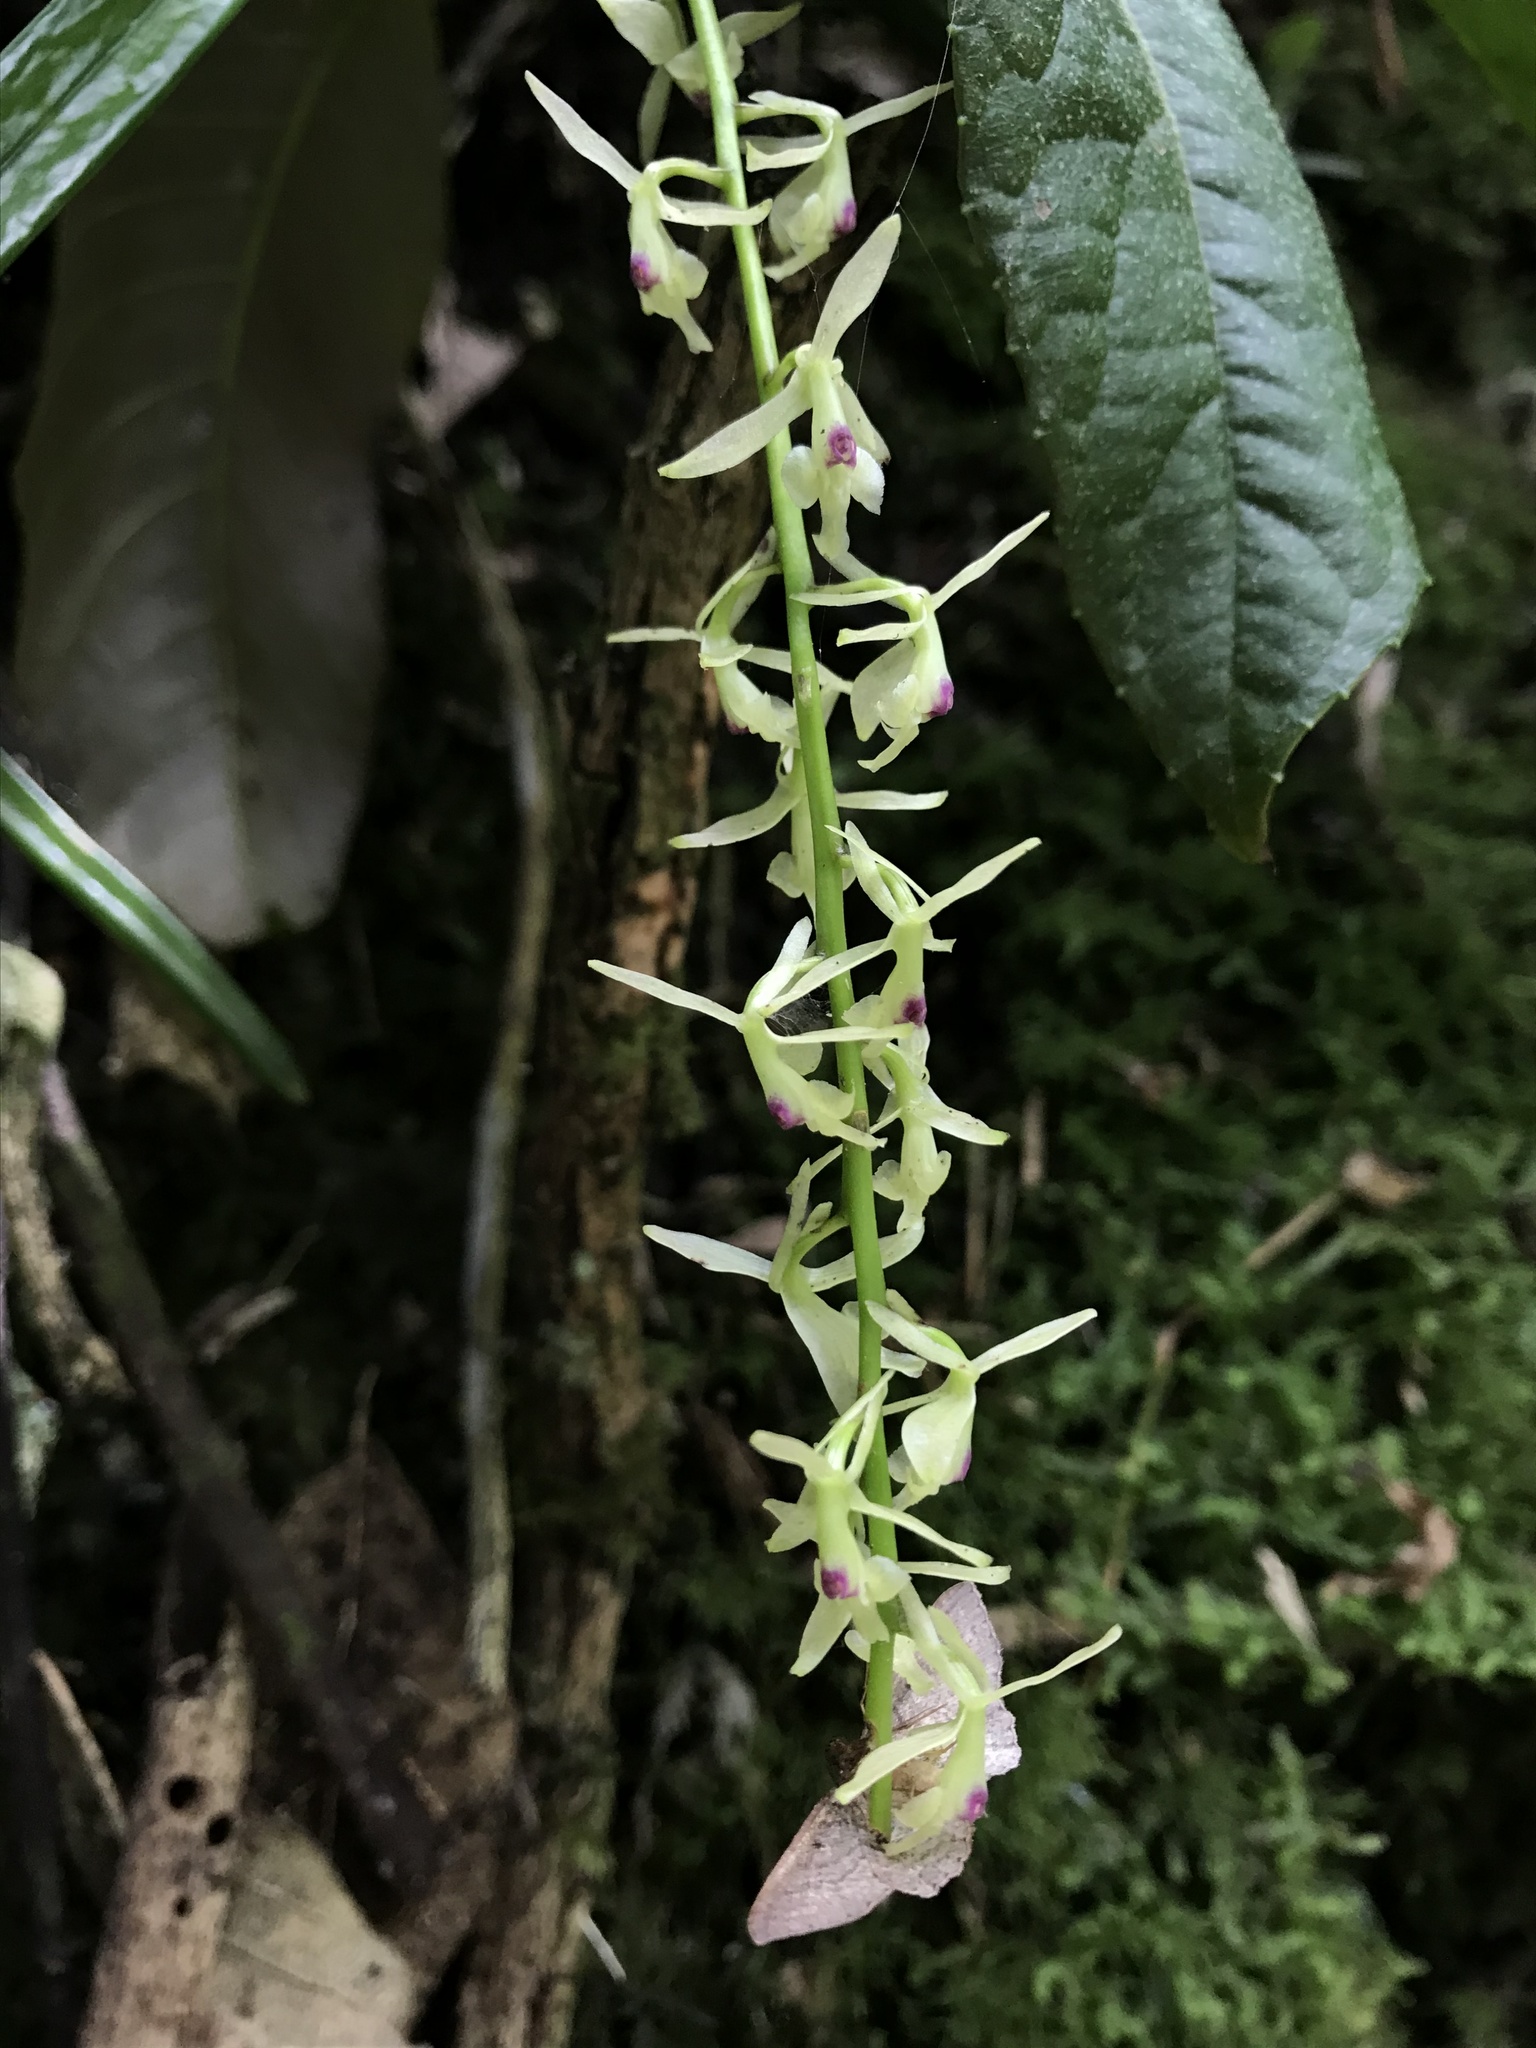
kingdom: Plantae
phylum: Tracheophyta
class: Liliopsida
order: Asparagales
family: Orchidaceae
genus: Epidendrum
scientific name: Epidendrum moritzii
